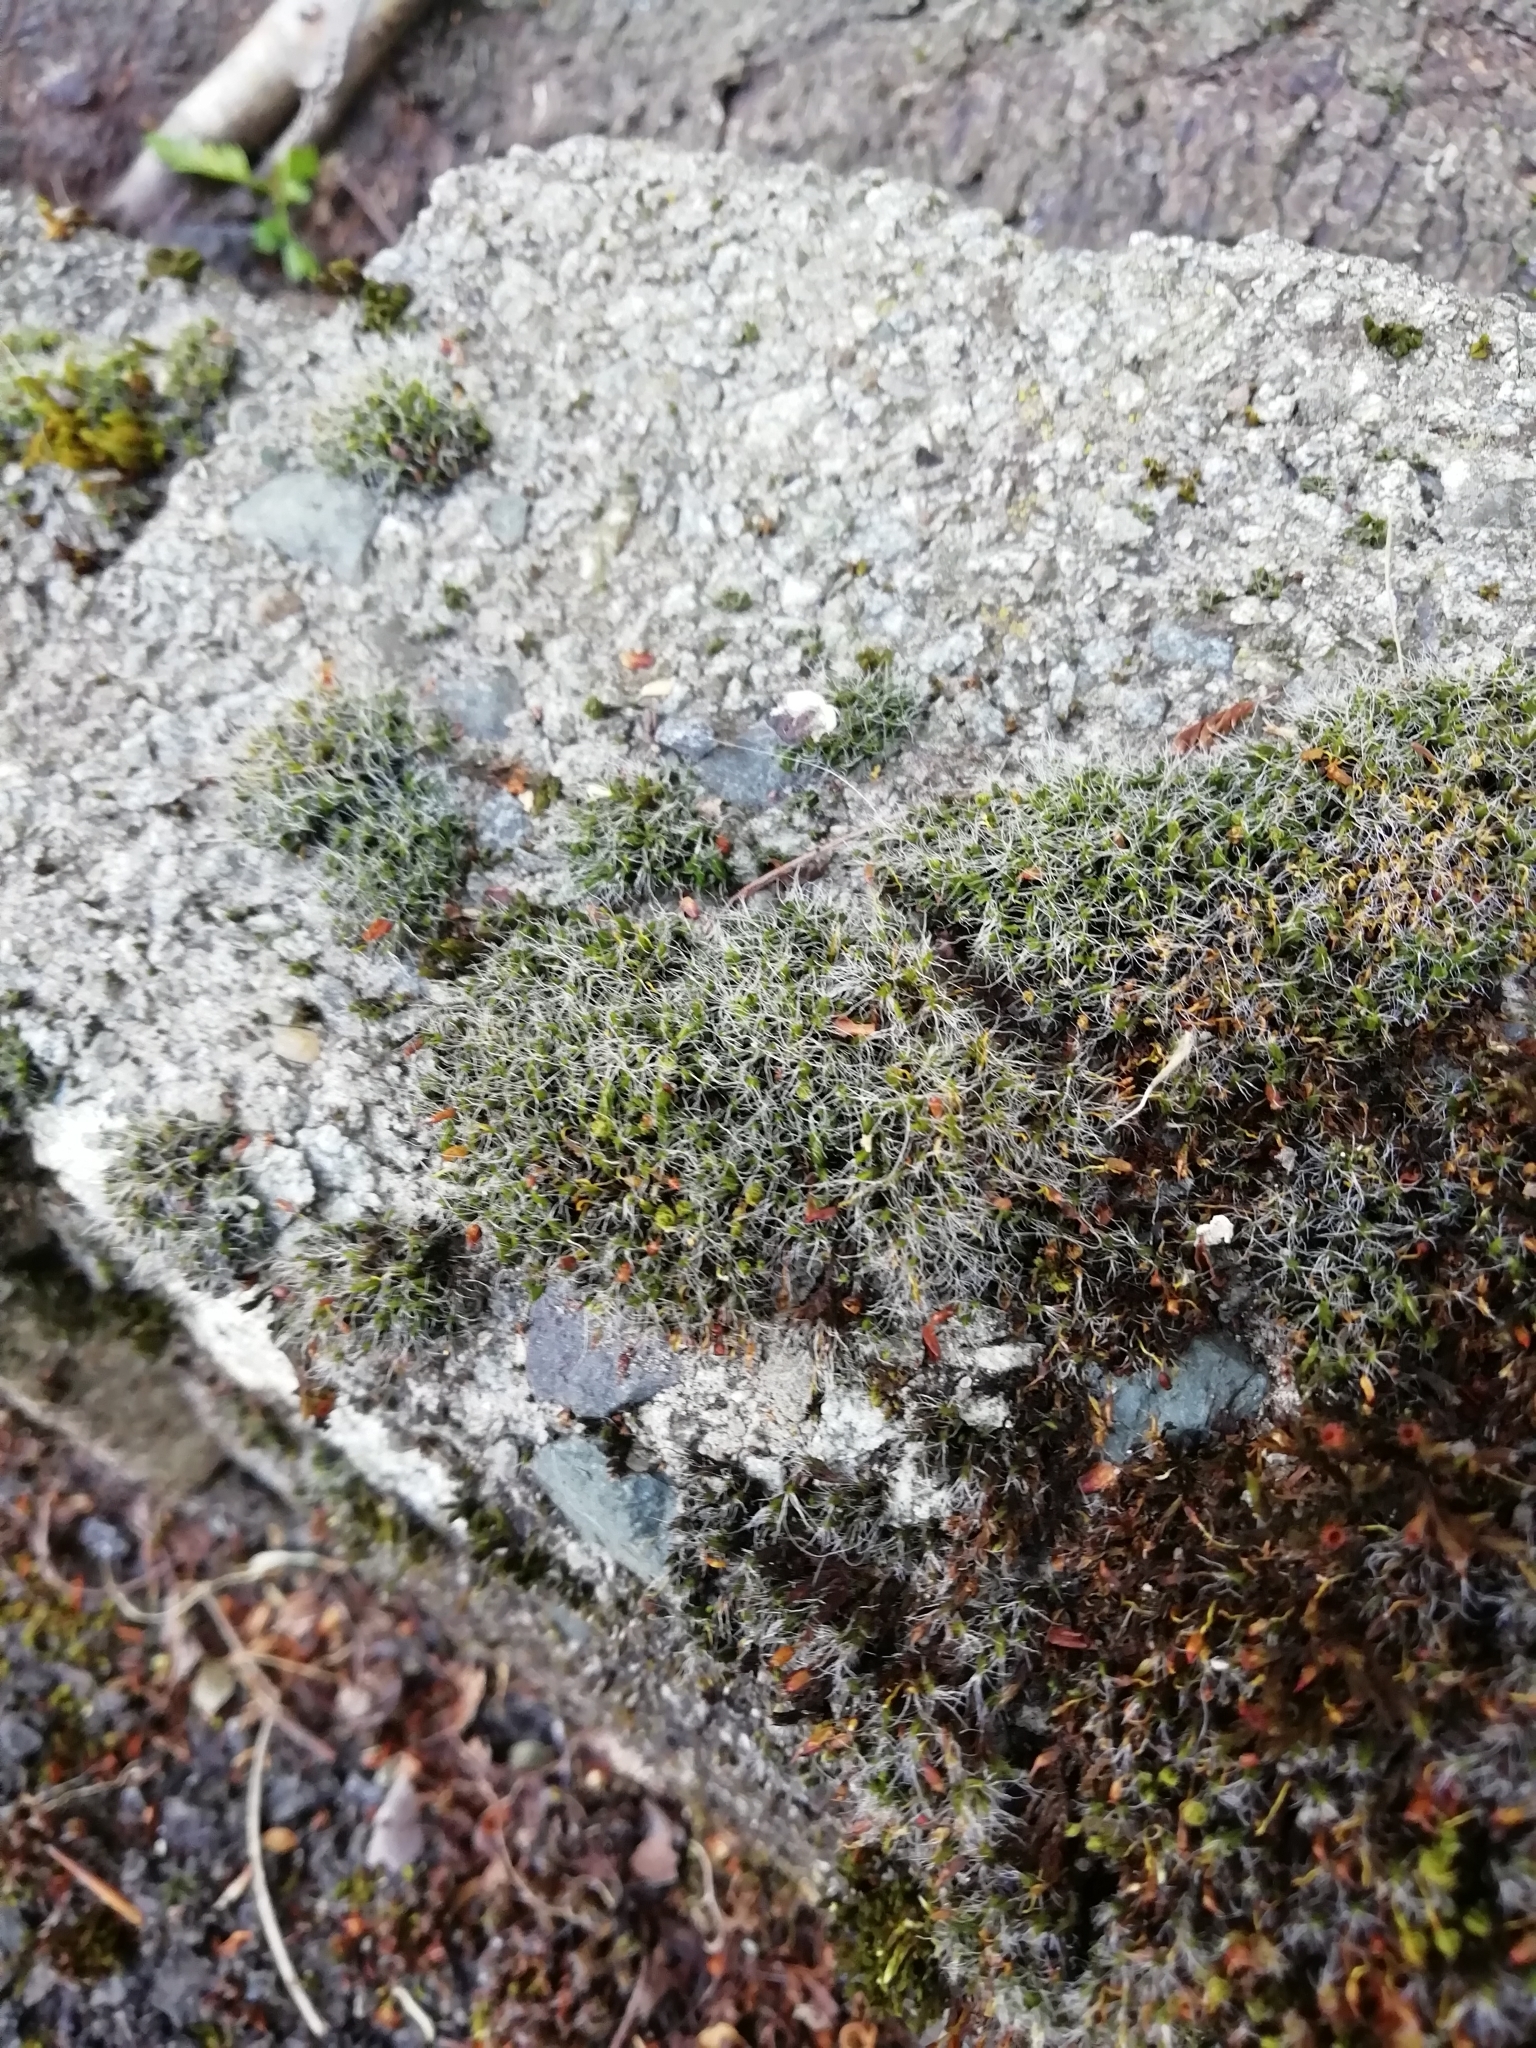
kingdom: Plantae
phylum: Bryophyta
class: Bryopsida
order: Grimmiales
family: Grimmiaceae
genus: Grimmia
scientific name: Grimmia pulvinata
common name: Grey-cushioned grimmia
